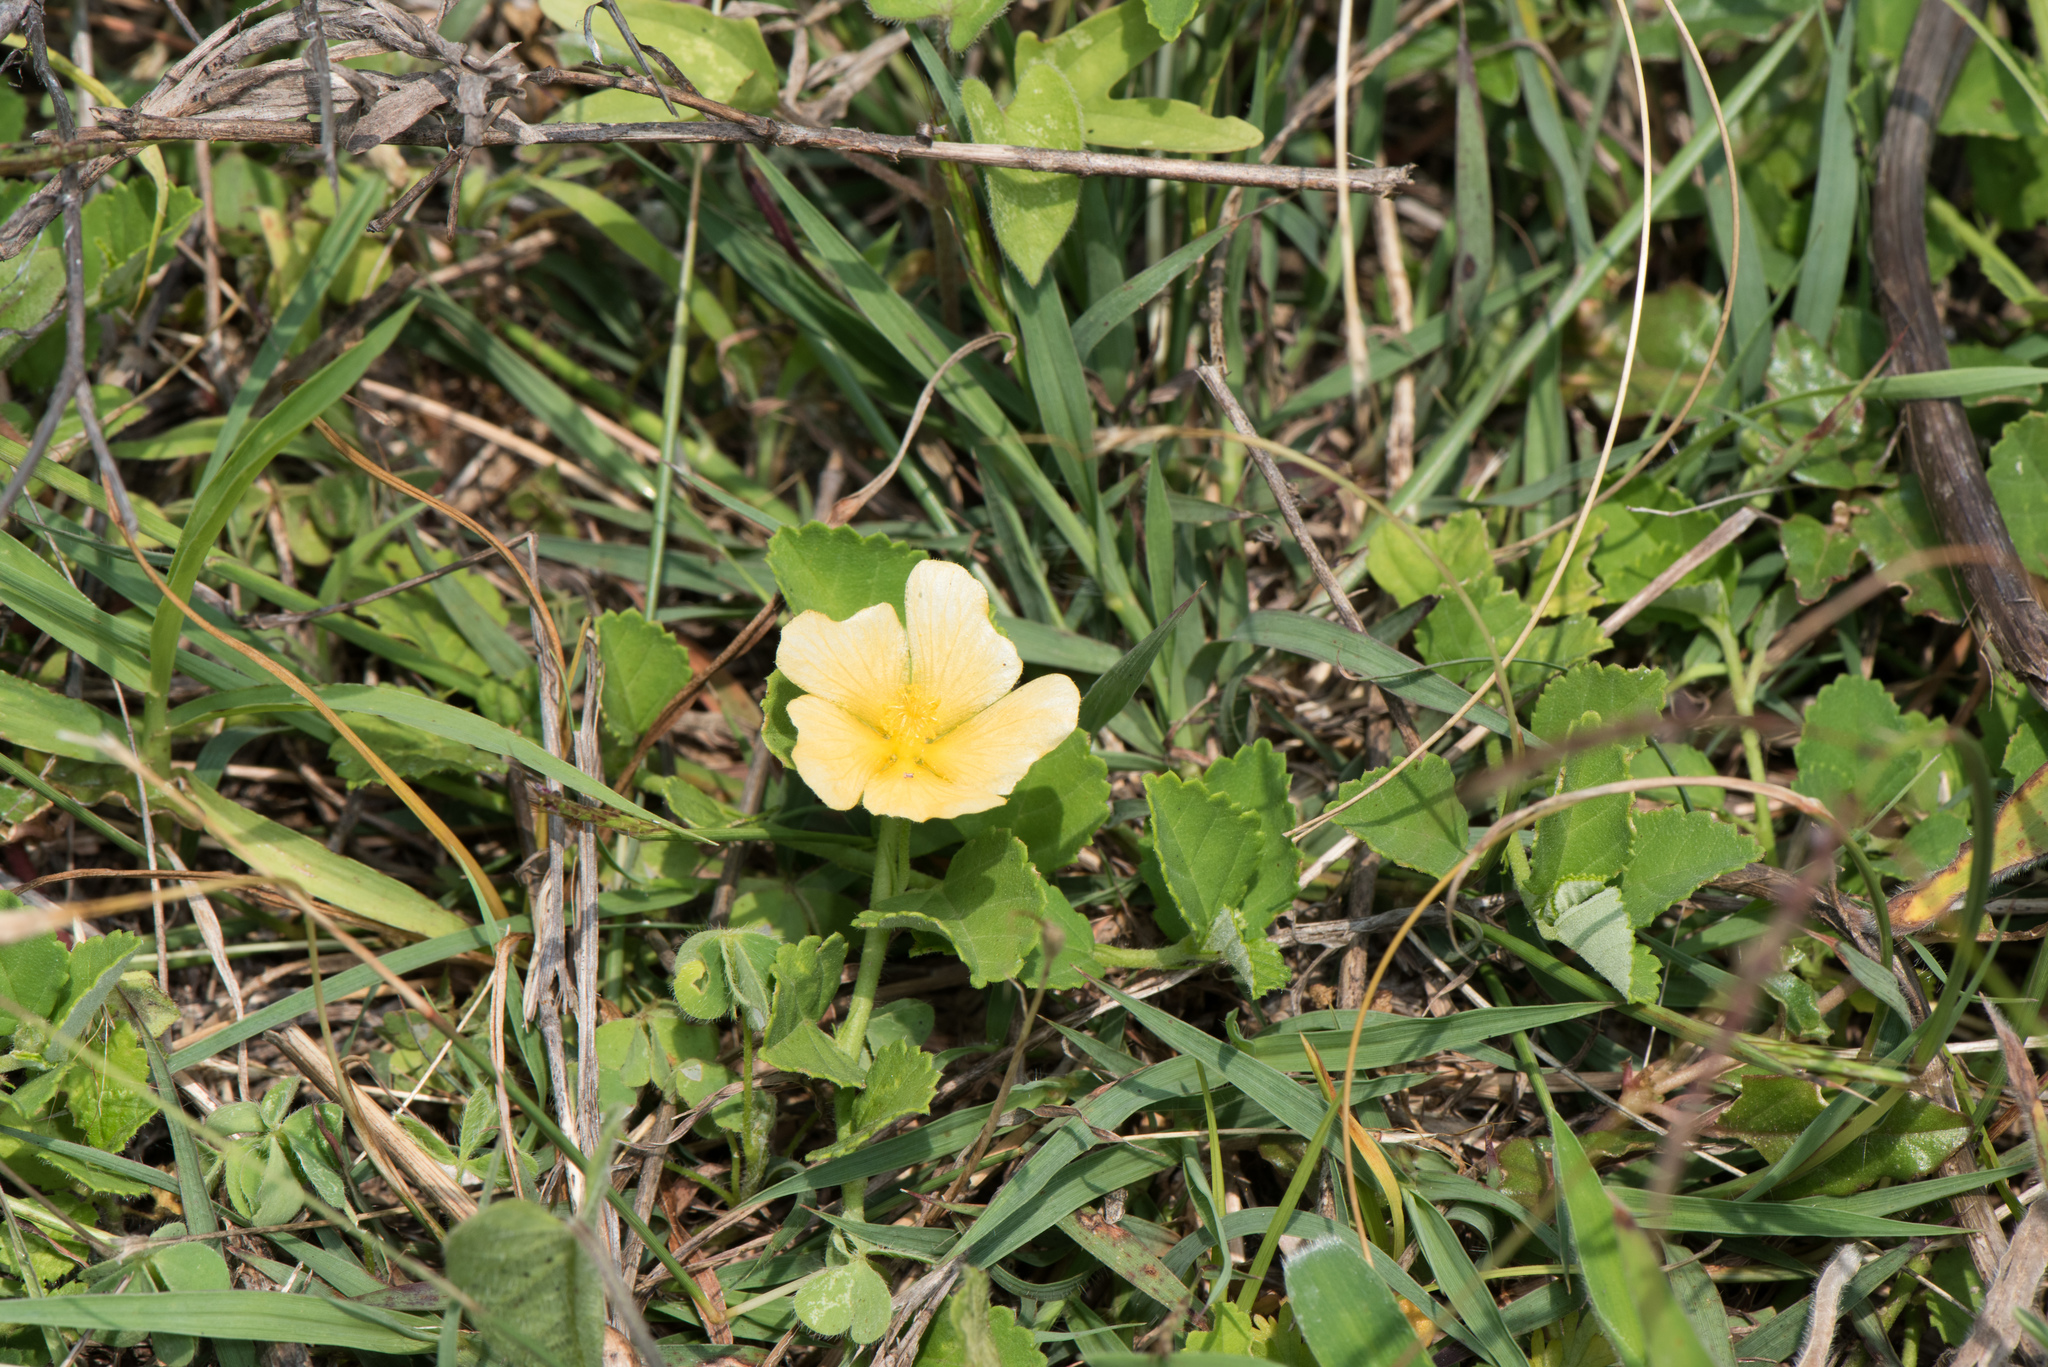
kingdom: Plantae
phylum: Tracheophyta
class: Magnoliopsida
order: Malvales
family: Malvaceae
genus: Sida
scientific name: Sida rhombifolia
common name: Queensland-hemp
